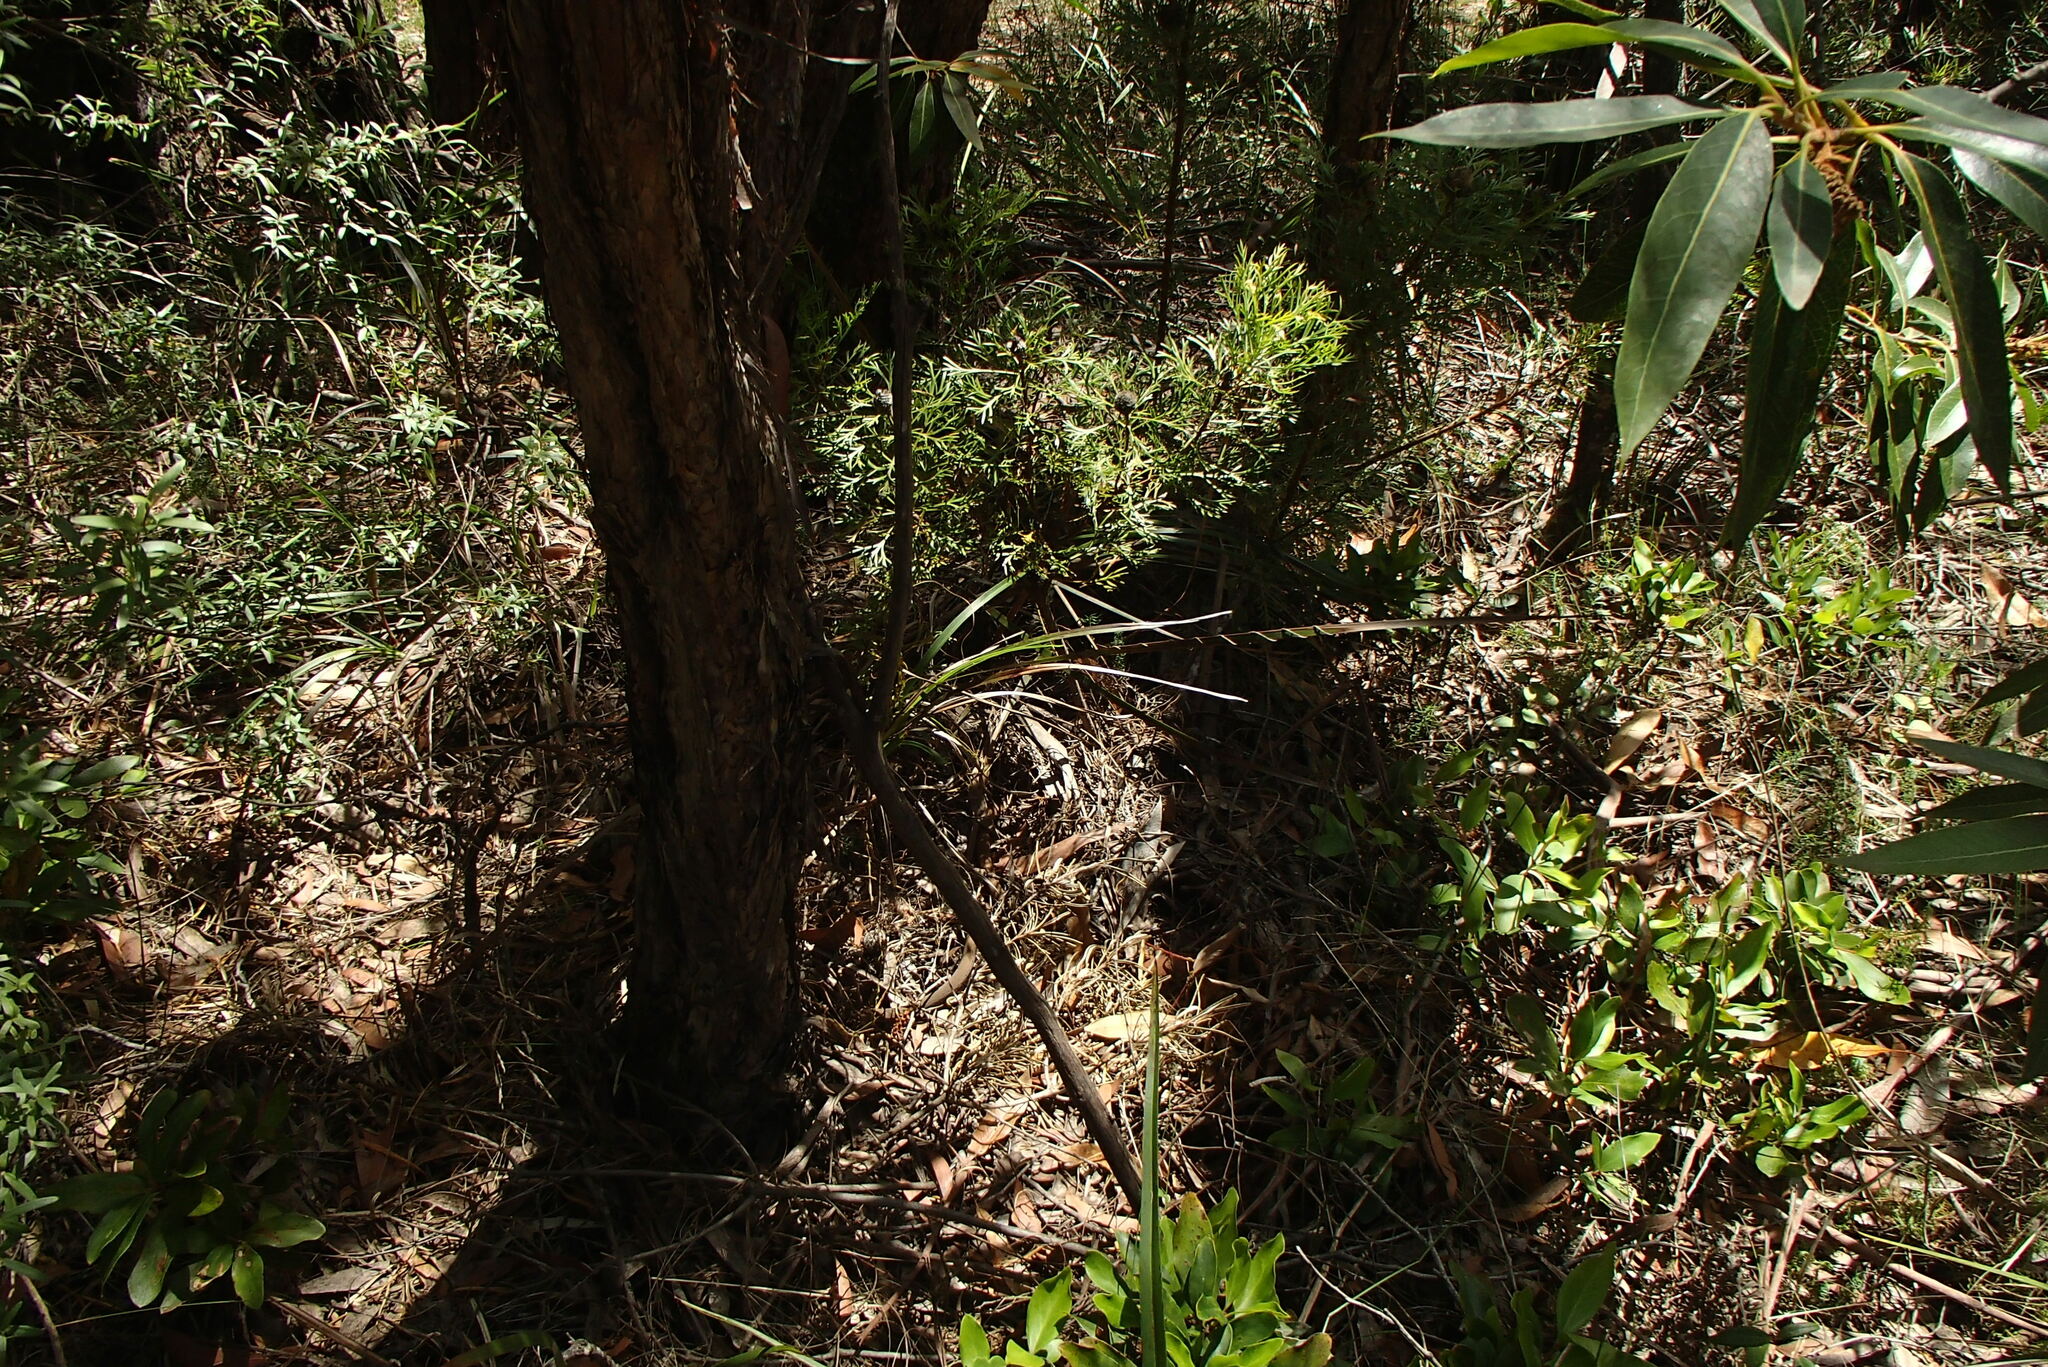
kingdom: Animalia
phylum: Chordata
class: Squamata
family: Elapidae
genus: Pseudonaja
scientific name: Pseudonaja textilis
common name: Eastern brown snake
